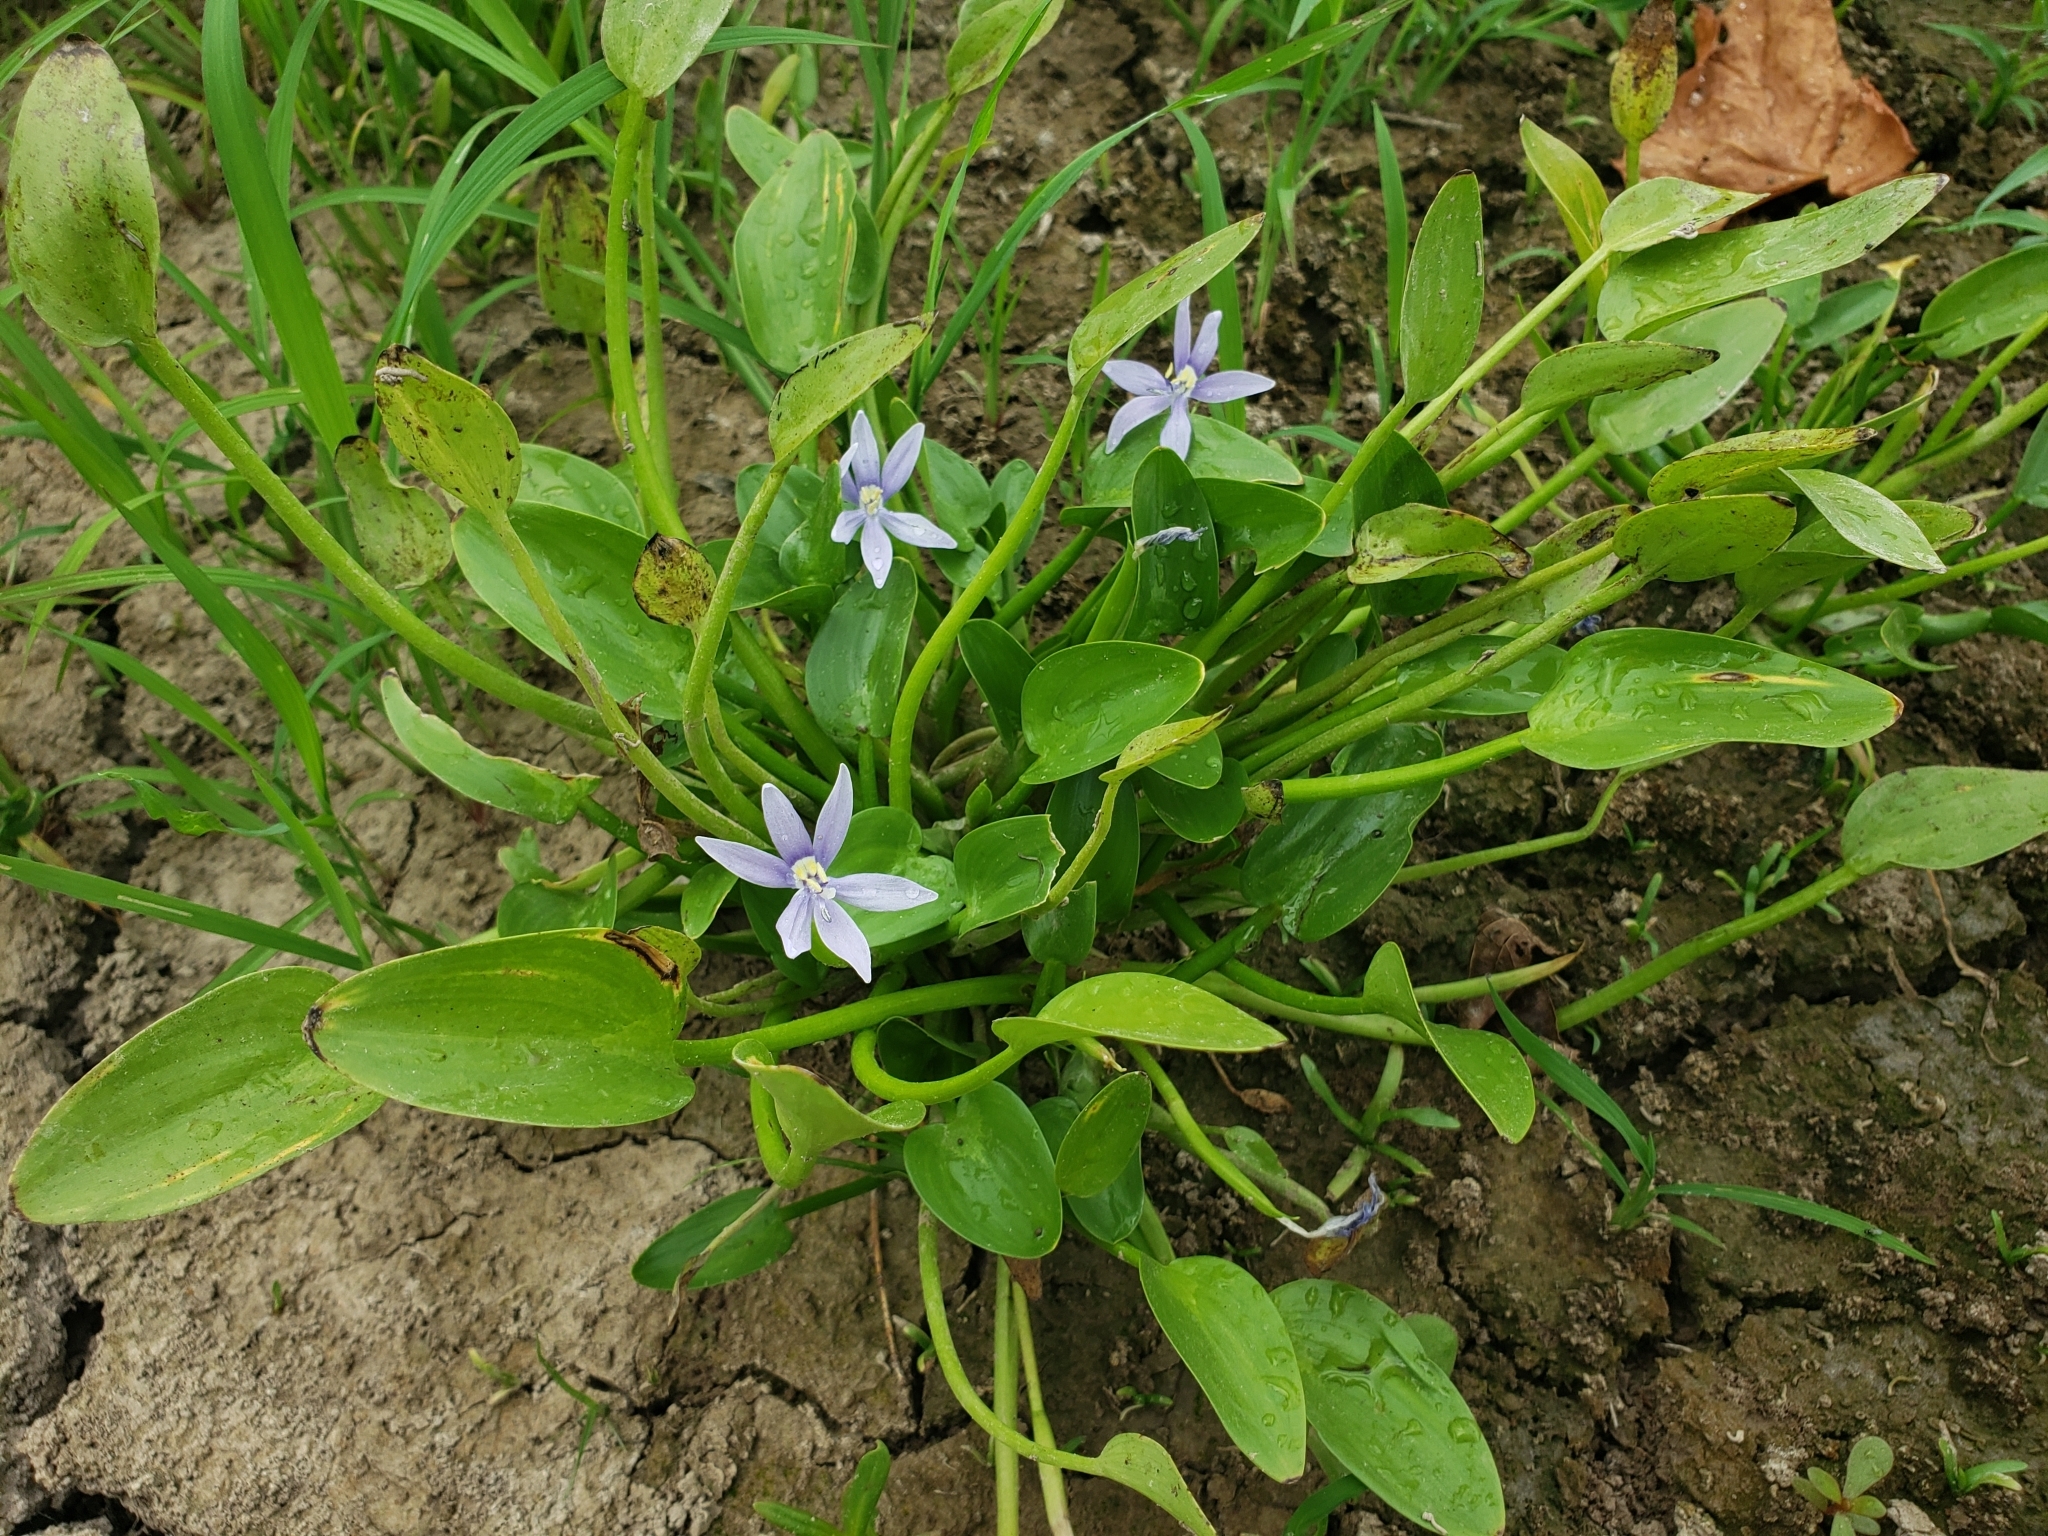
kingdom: Plantae
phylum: Tracheophyta
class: Liliopsida
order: Commelinales
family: Pontederiaceae
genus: Heteranthera
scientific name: Heteranthera limosa
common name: Blue mud-plantain
